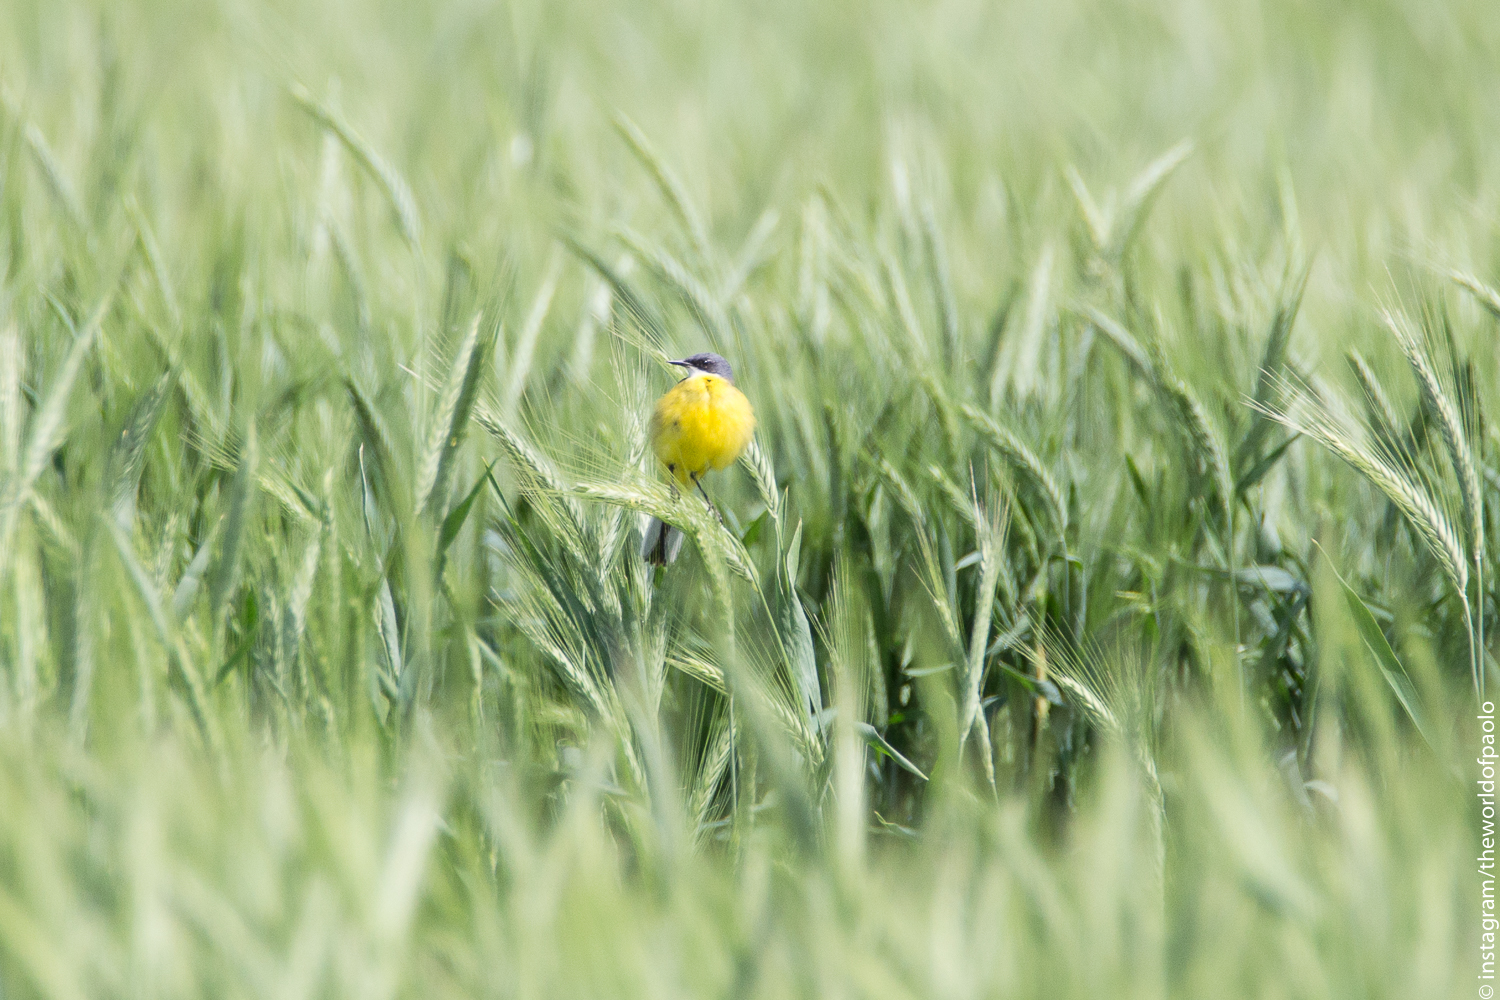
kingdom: Animalia
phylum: Chordata
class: Aves
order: Passeriformes
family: Motacillidae
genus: Motacilla
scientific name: Motacilla flava
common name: Western yellow wagtail
